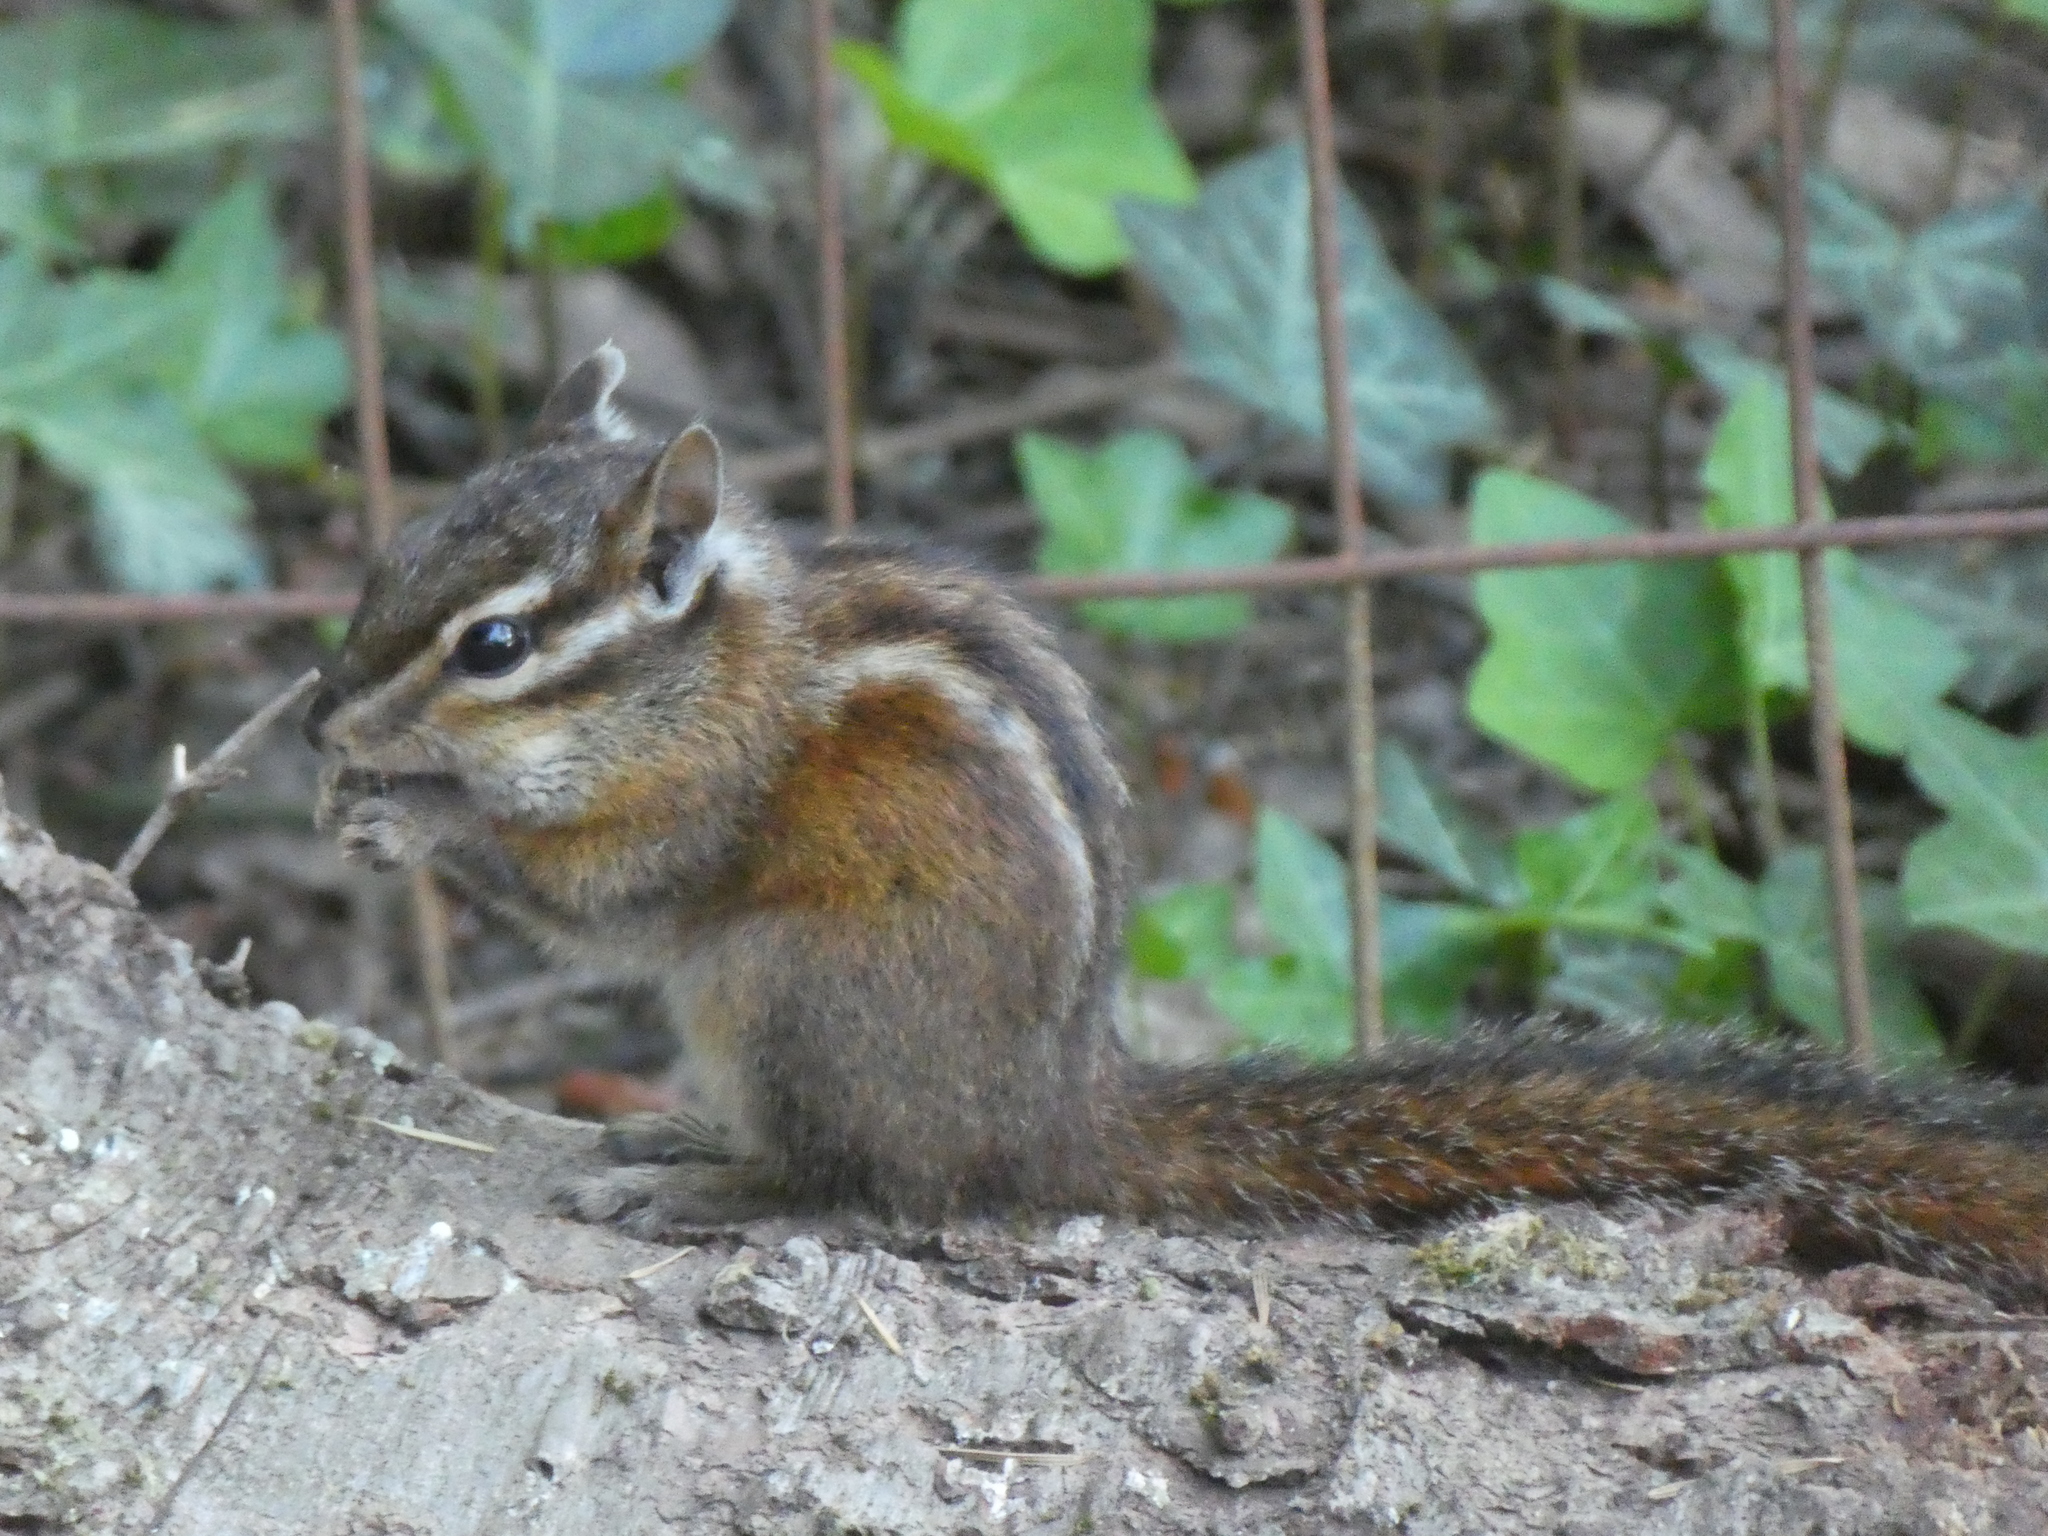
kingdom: Animalia
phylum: Chordata
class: Mammalia
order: Rodentia
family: Sciuridae
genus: Tamias
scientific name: Tamias sonomae
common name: Sonoma chipmunk
